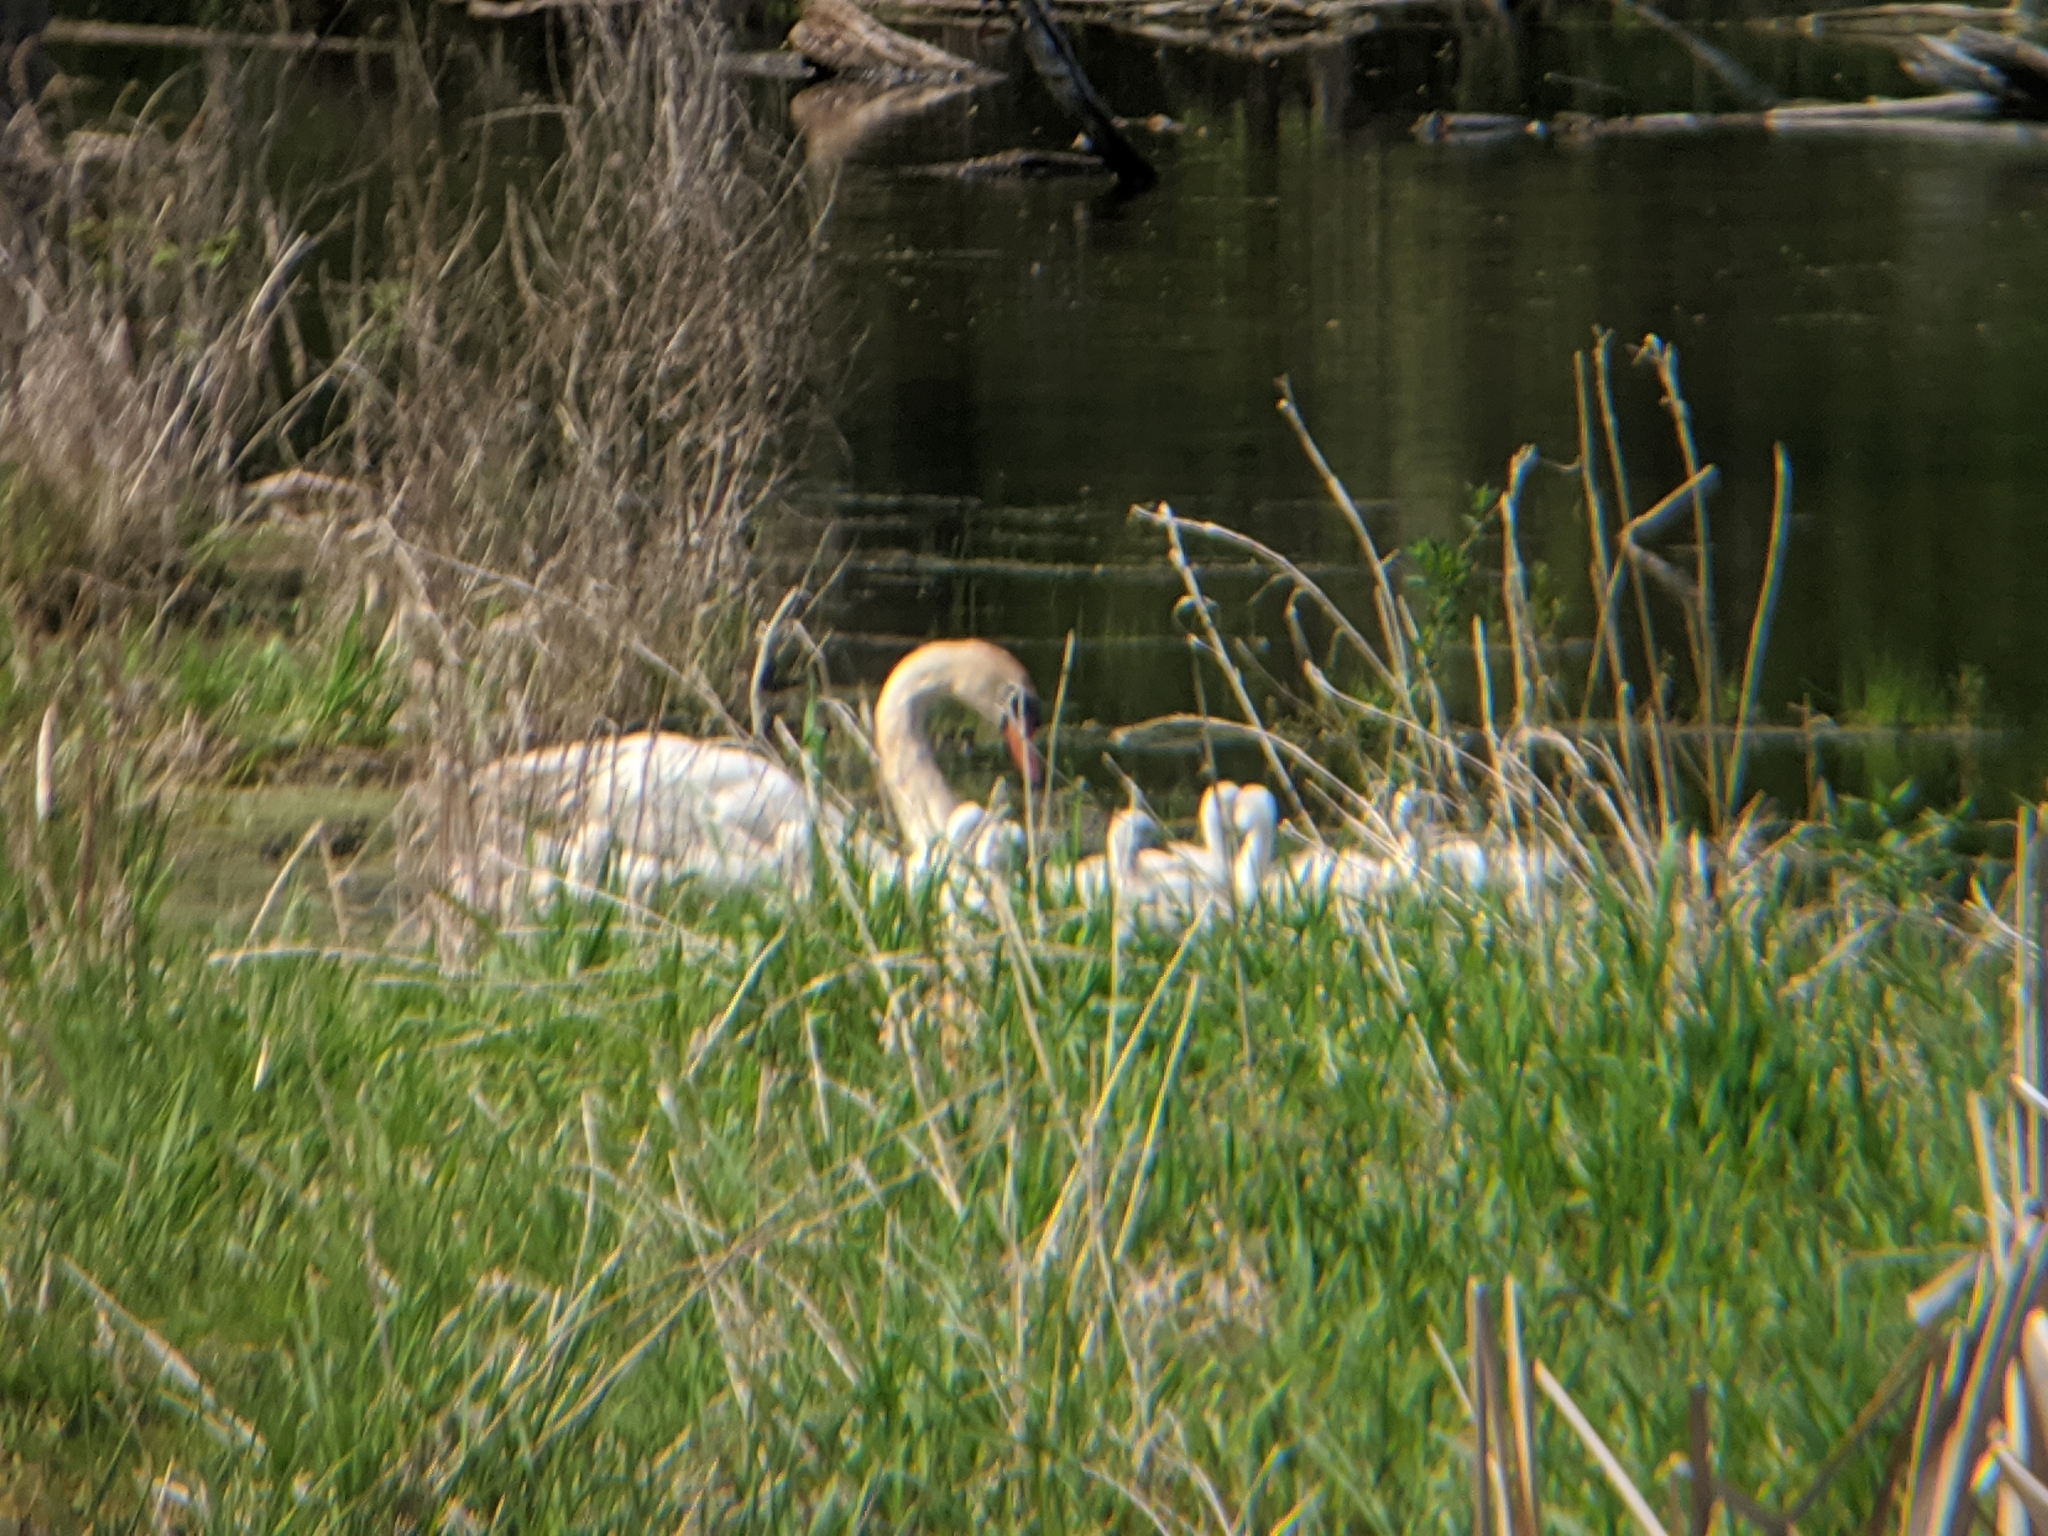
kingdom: Animalia
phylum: Chordata
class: Aves
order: Anseriformes
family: Anatidae
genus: Cygnus
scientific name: Cygnus olor
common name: Mute swan
